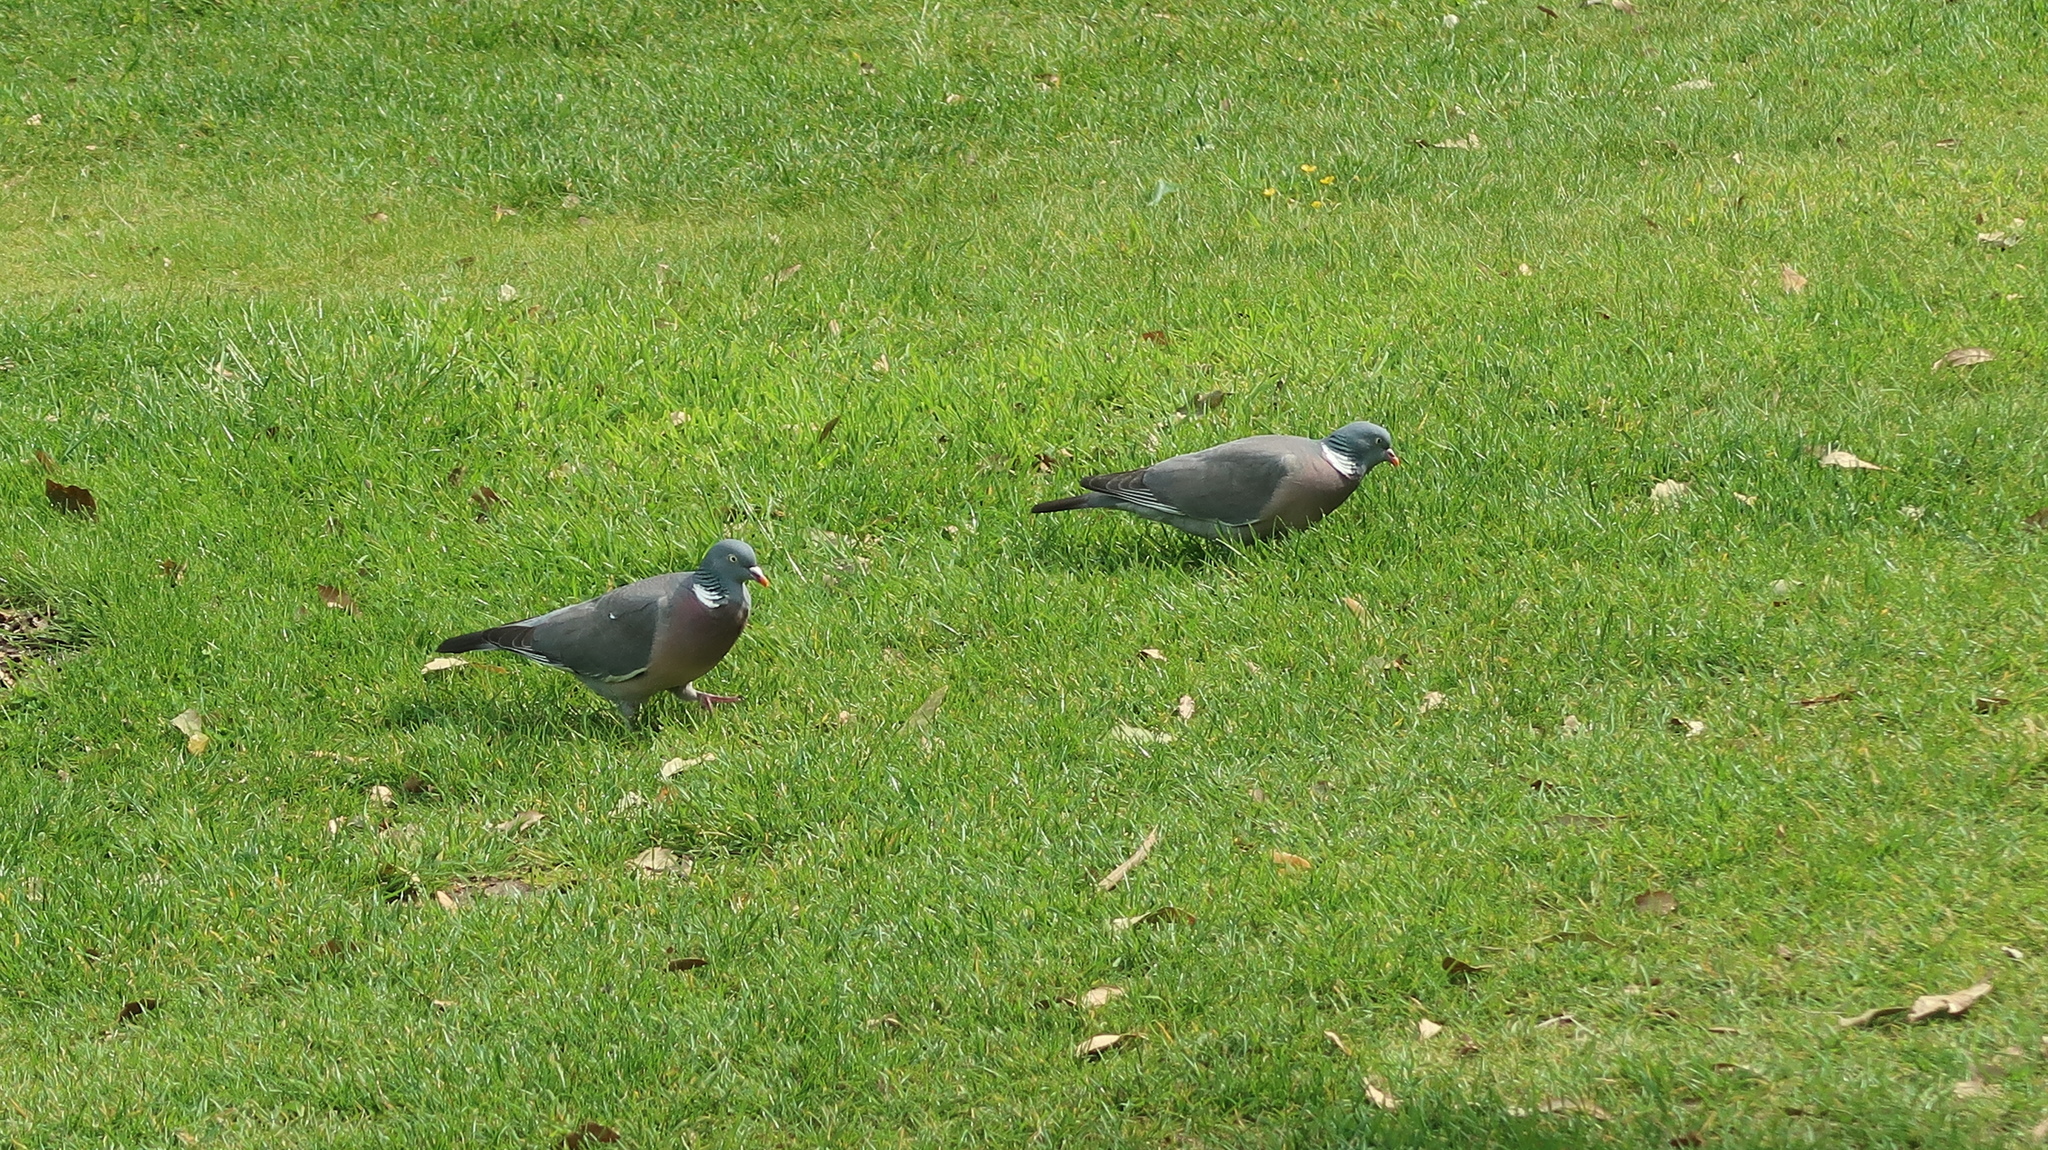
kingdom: Animalia
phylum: Chordata
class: Aves
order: Columbiformes
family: Columbidae
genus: Columba
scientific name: Columba palumbus
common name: Common wood pigeon
